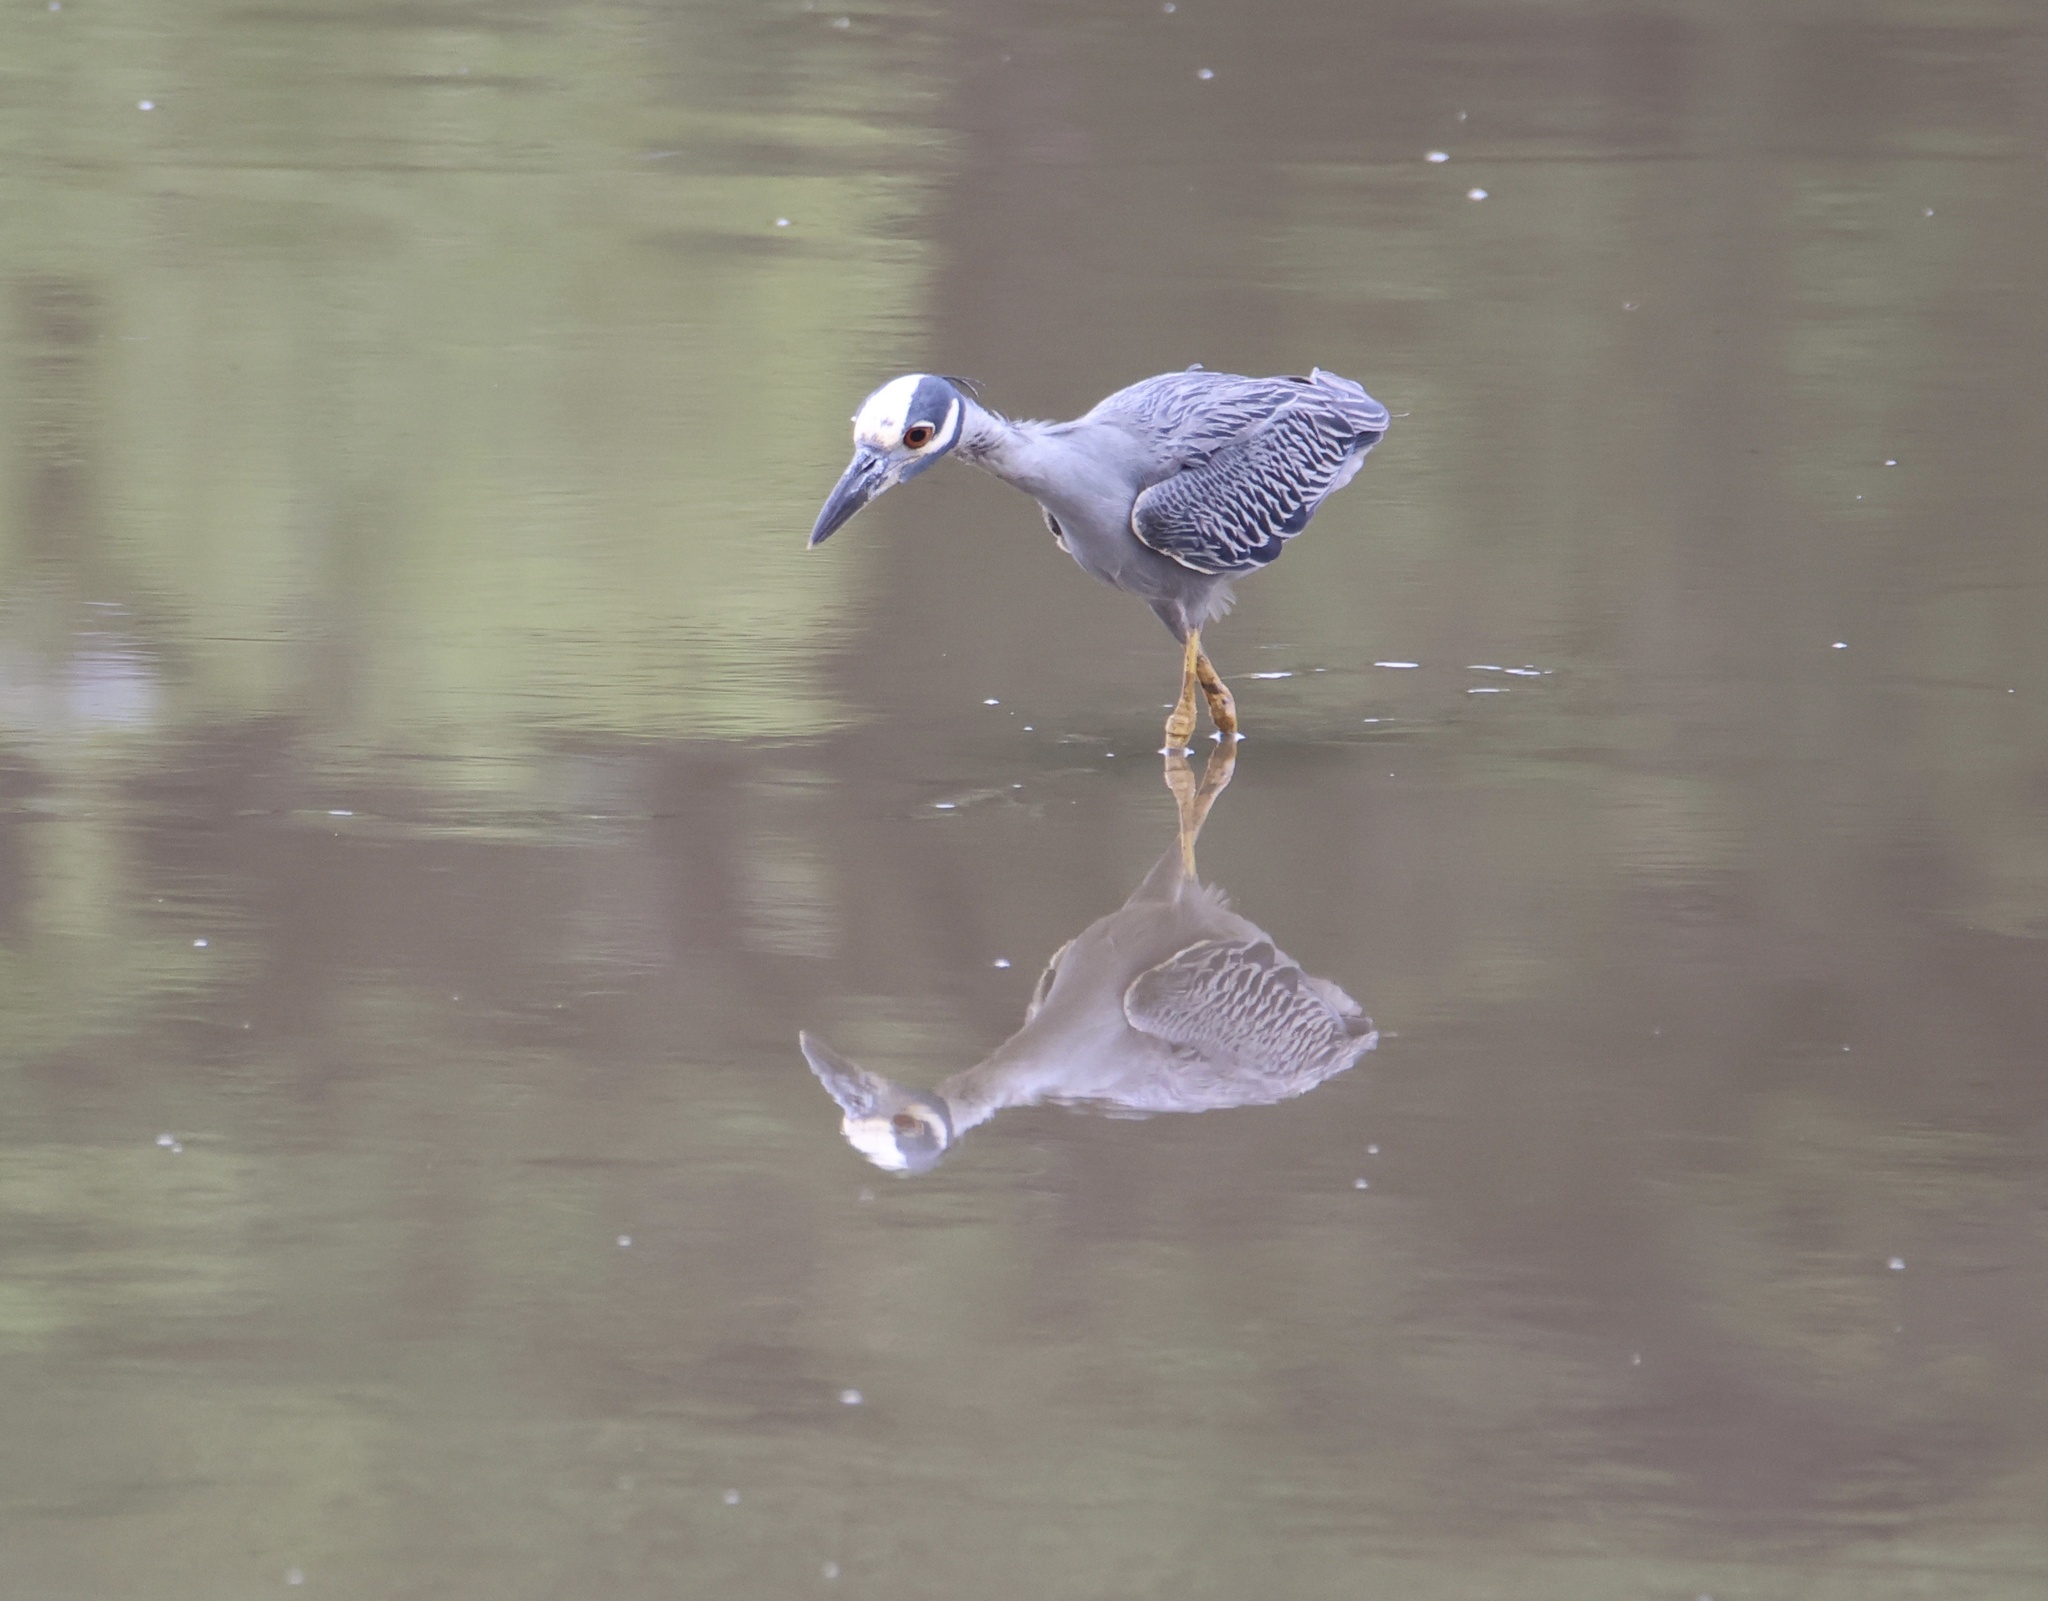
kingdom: Animalia
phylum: Chordata
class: Aves
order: Pelecaniformes
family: Ardeidae
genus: Nyctanassa
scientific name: Nyctanassa violacea
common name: Yellow-crowned night heron
